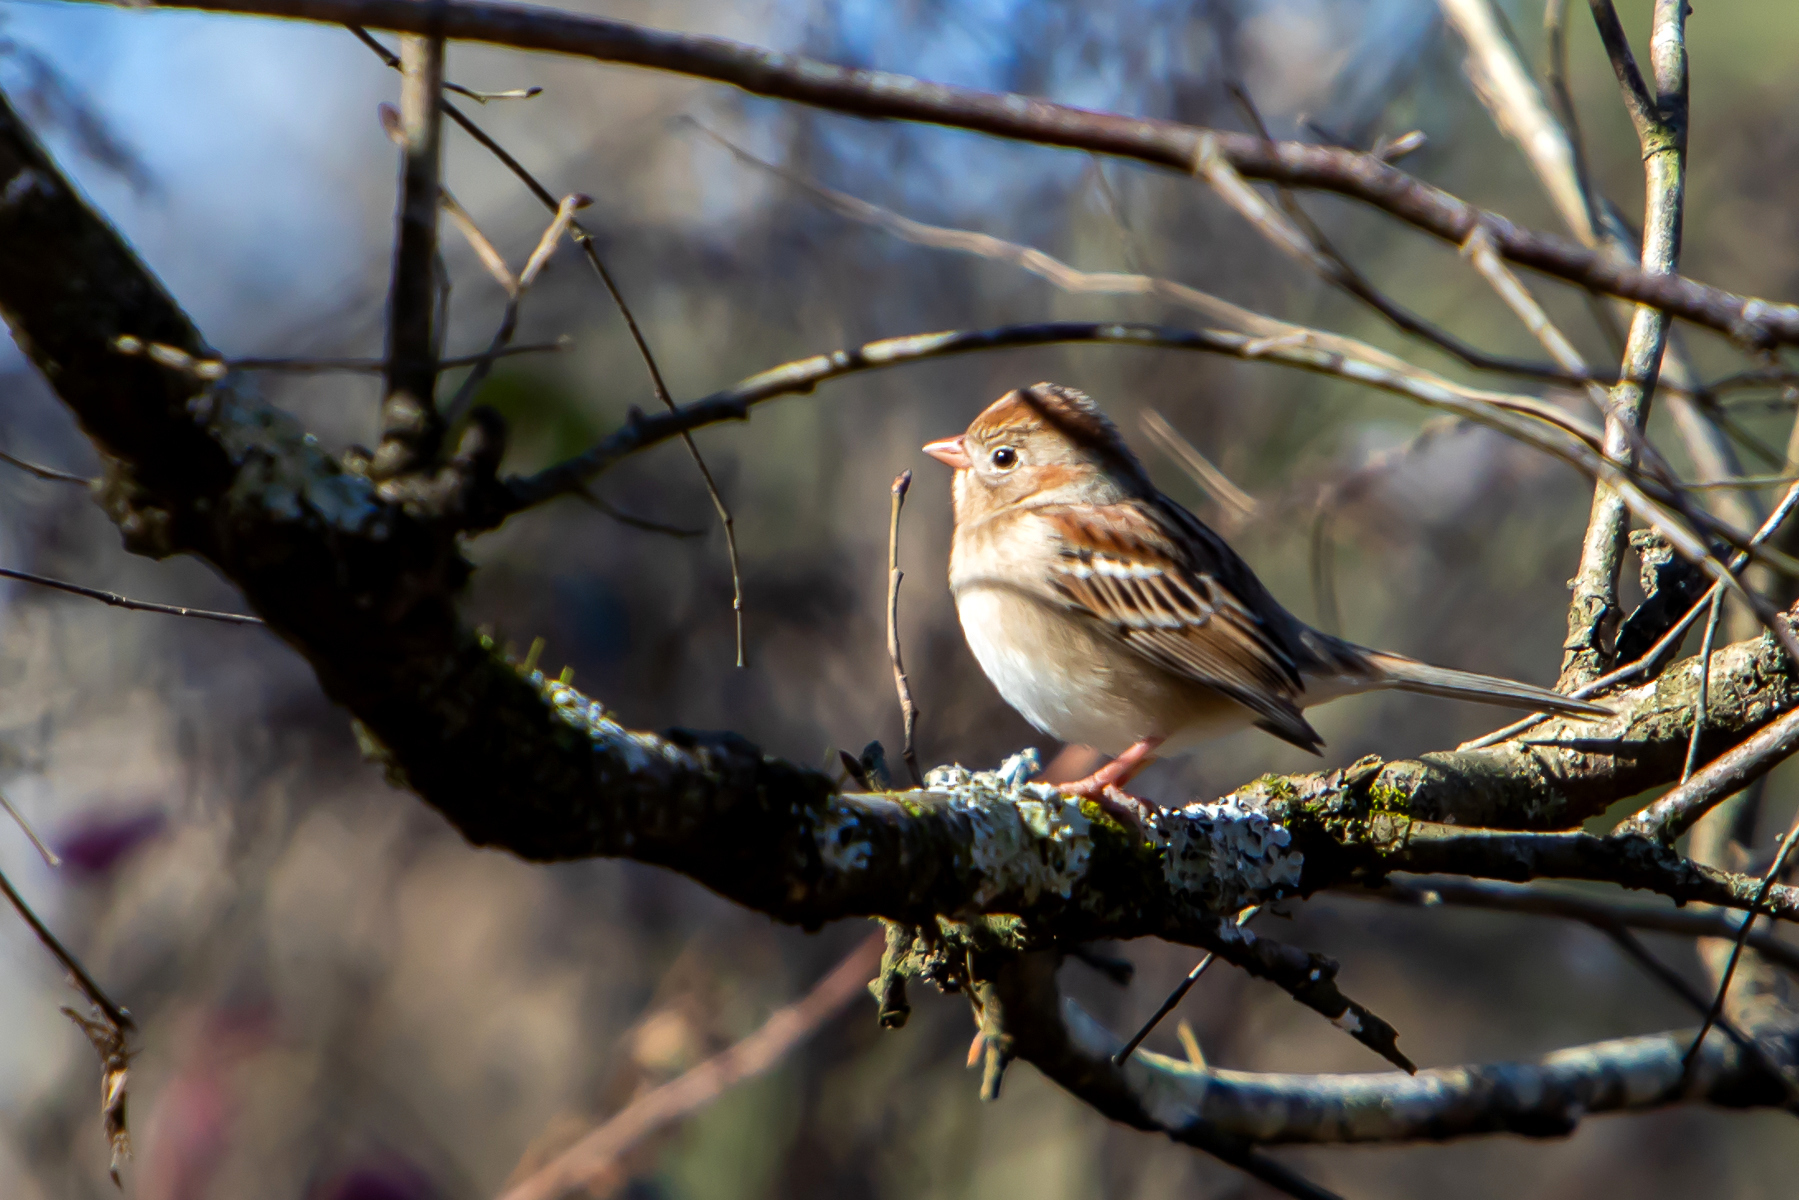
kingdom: Animalia
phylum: Chordata
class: Aves
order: Passeriformes
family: Passerellidae
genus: Spizella
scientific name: Spizella pusilla
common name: Field sparrow
